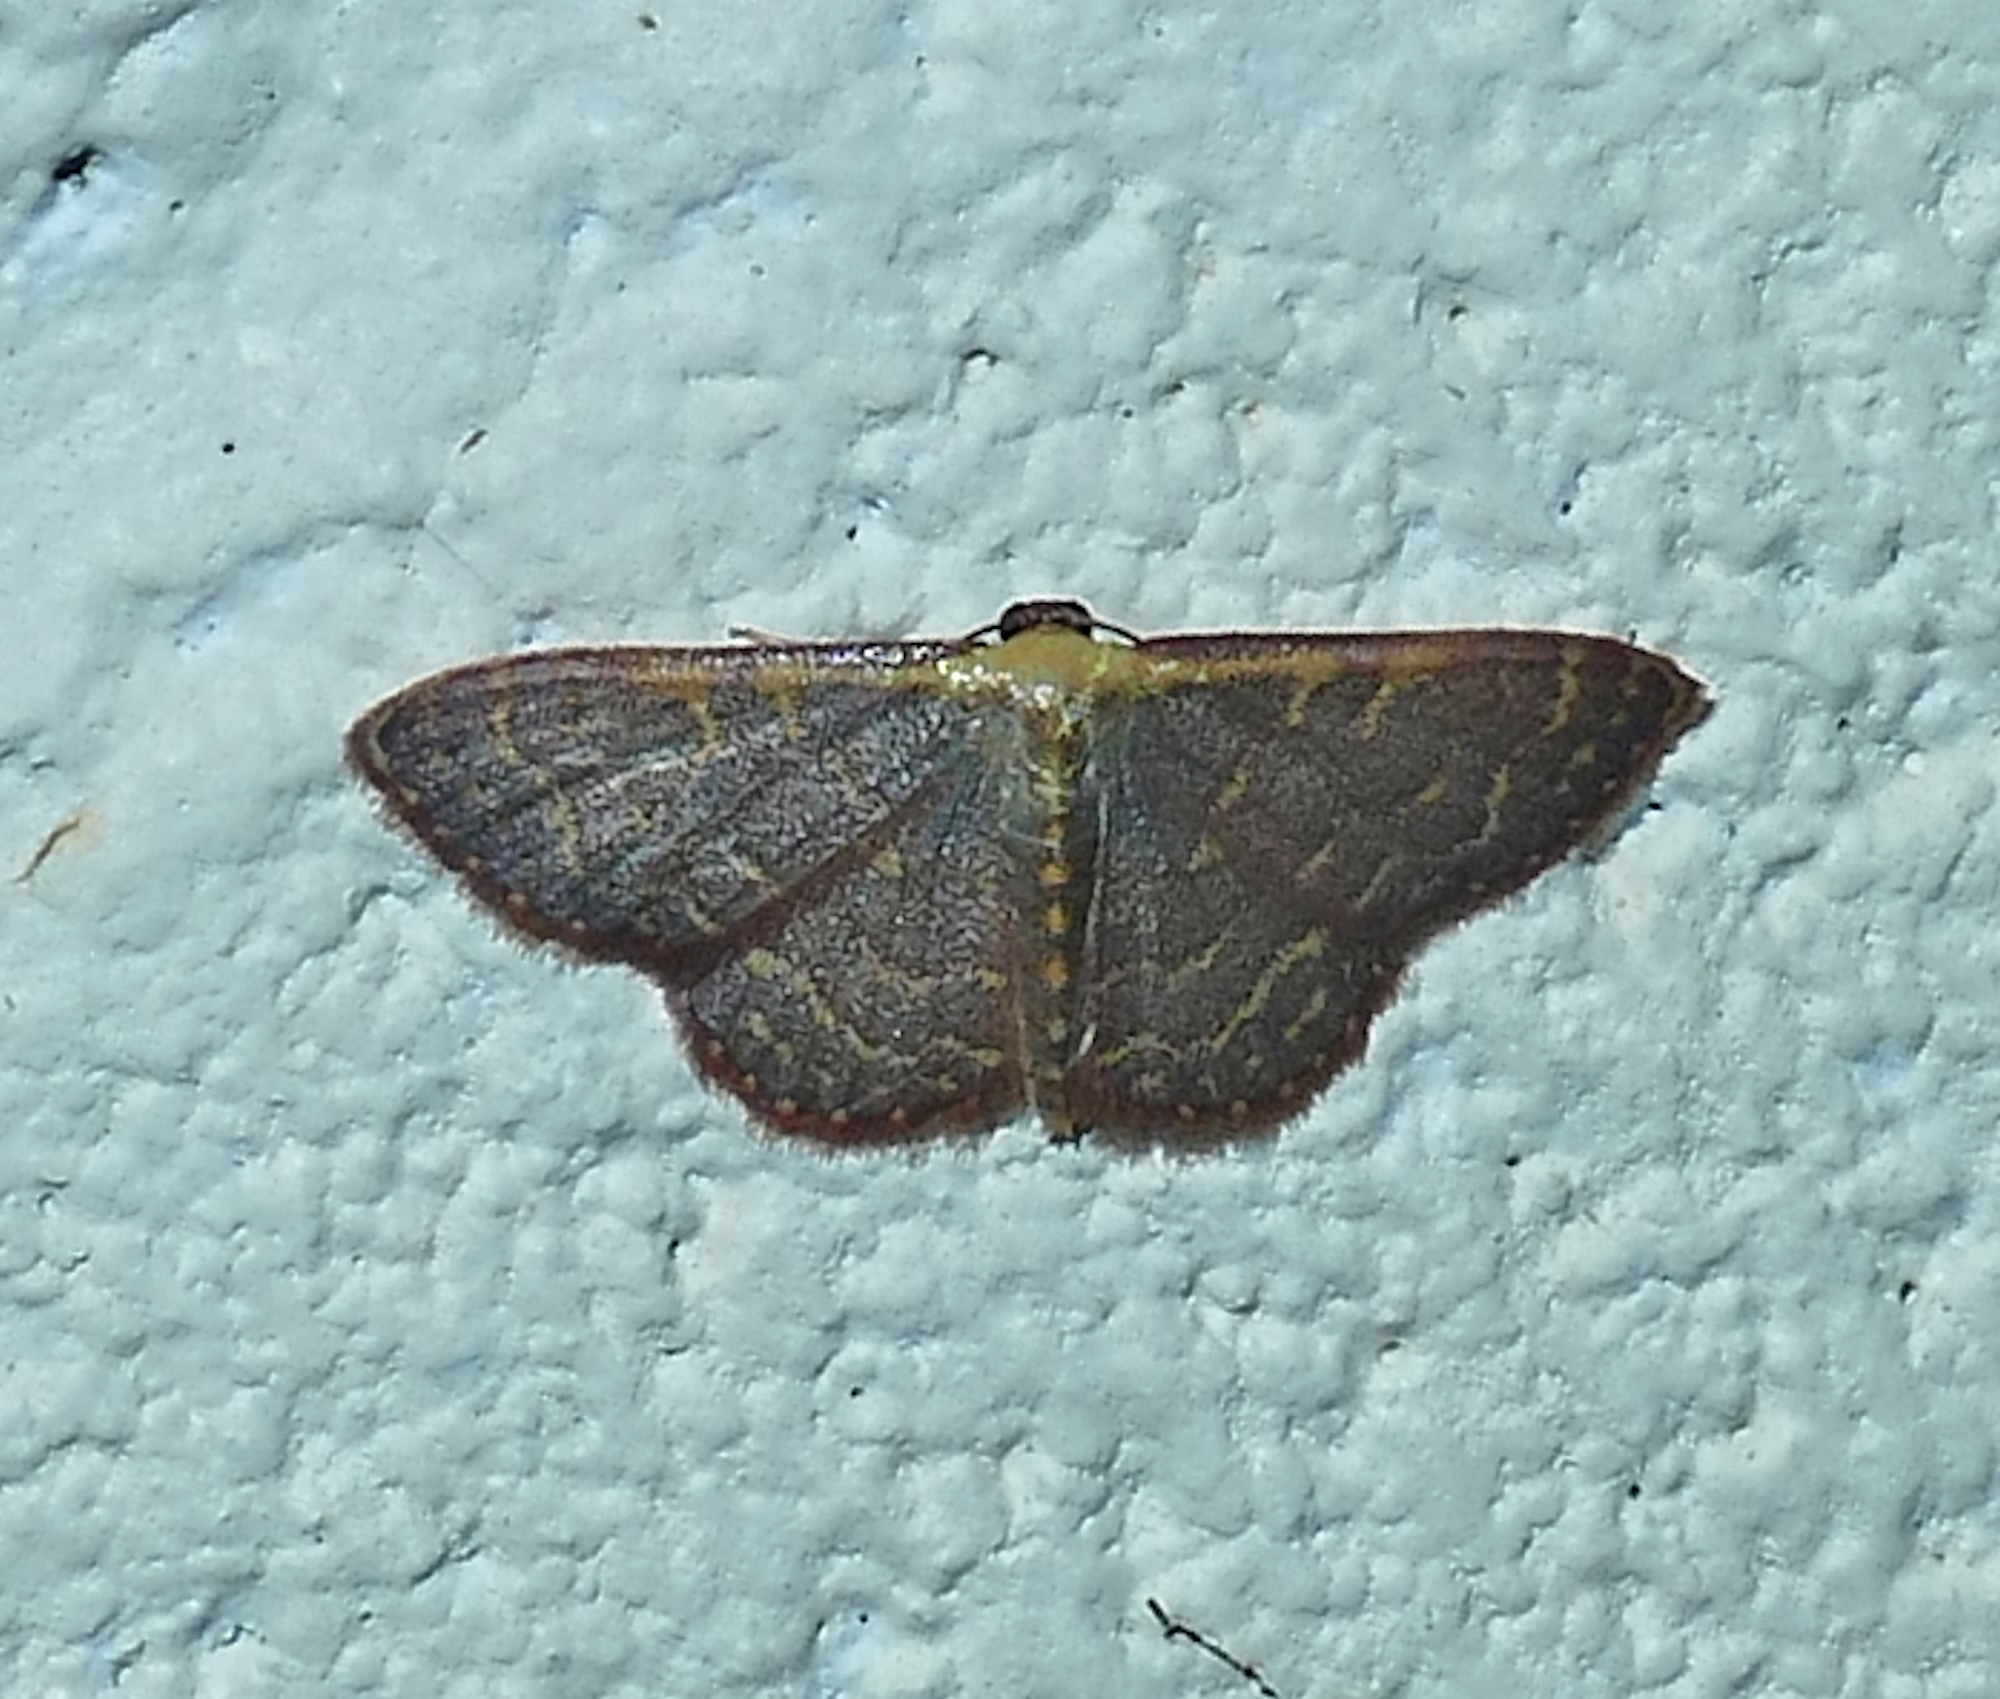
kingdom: Animalia
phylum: Arthropoda
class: Insecta
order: Lepidoptera
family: Geometridae
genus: Leptostales
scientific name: Leptostales pannaria
